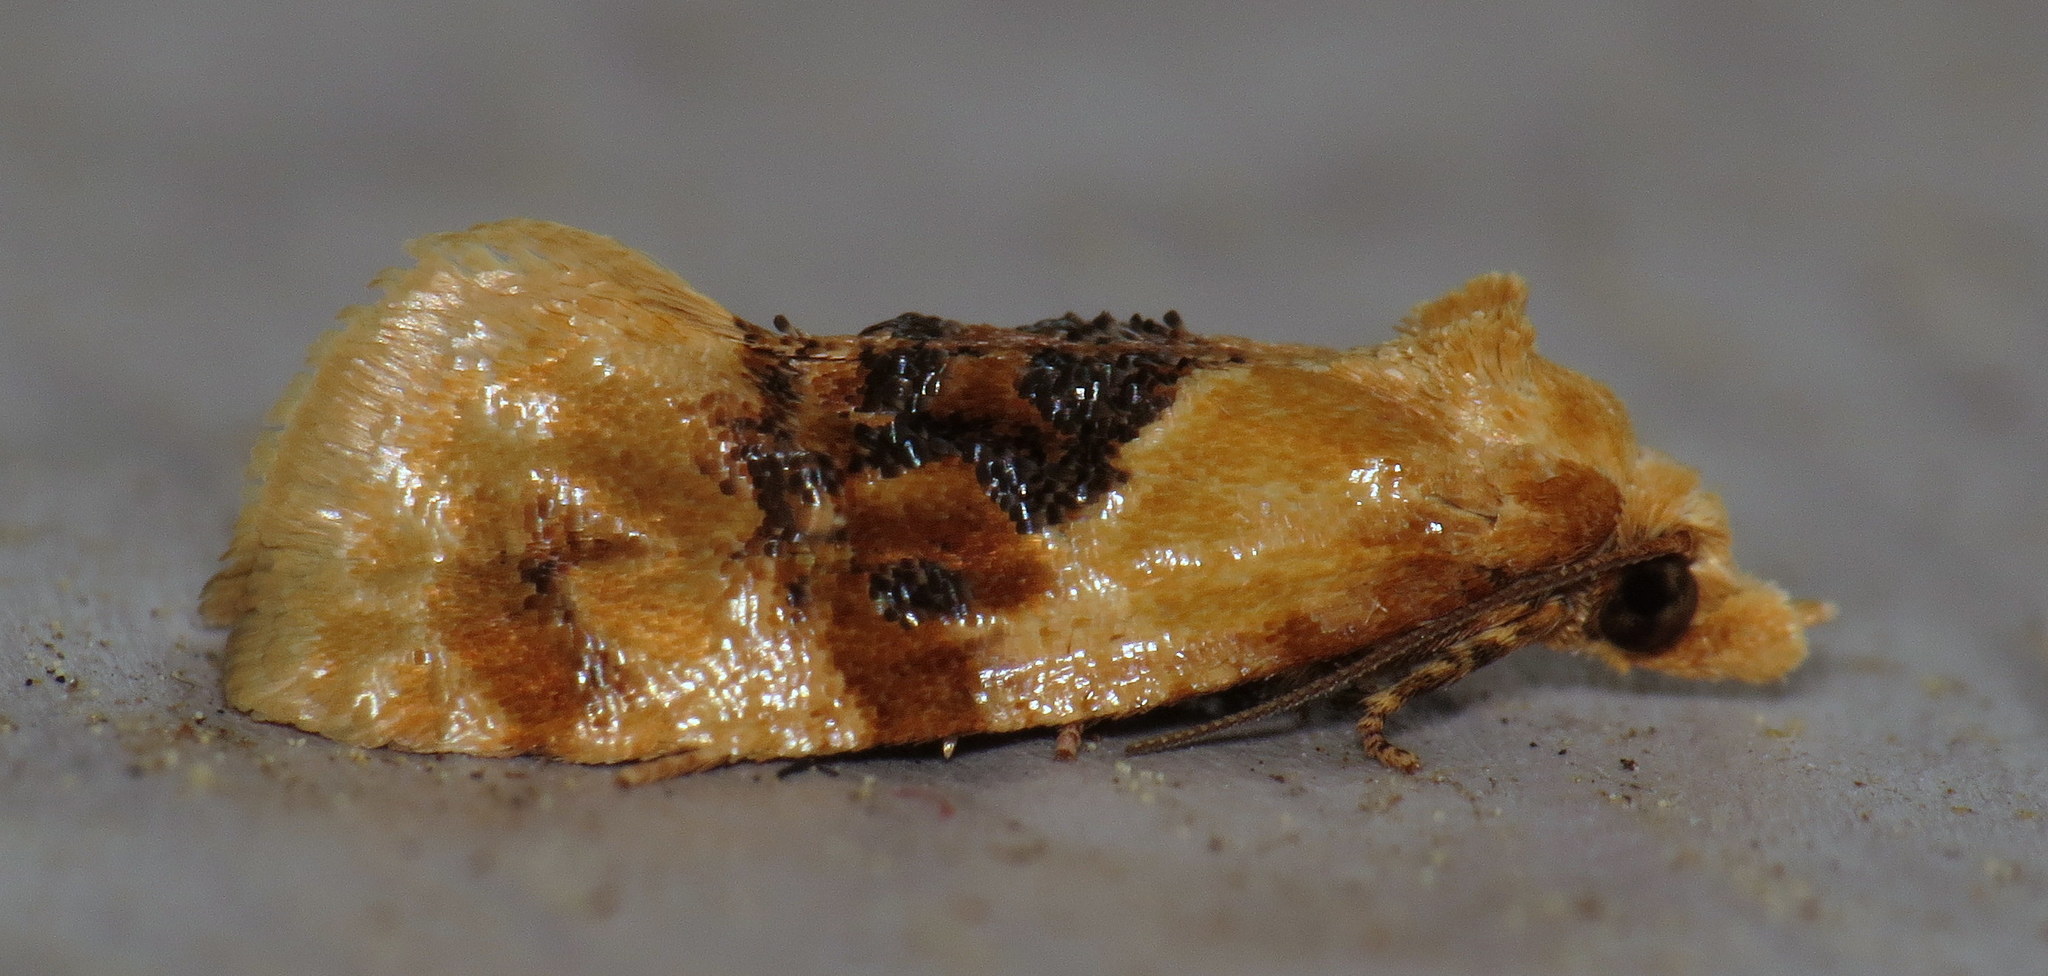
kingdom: Animalia
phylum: Arthropoda
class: Insecta
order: Lepidoptera
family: Tortricidae
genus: Cochylis
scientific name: Cochylis Cochylichroa hospes
